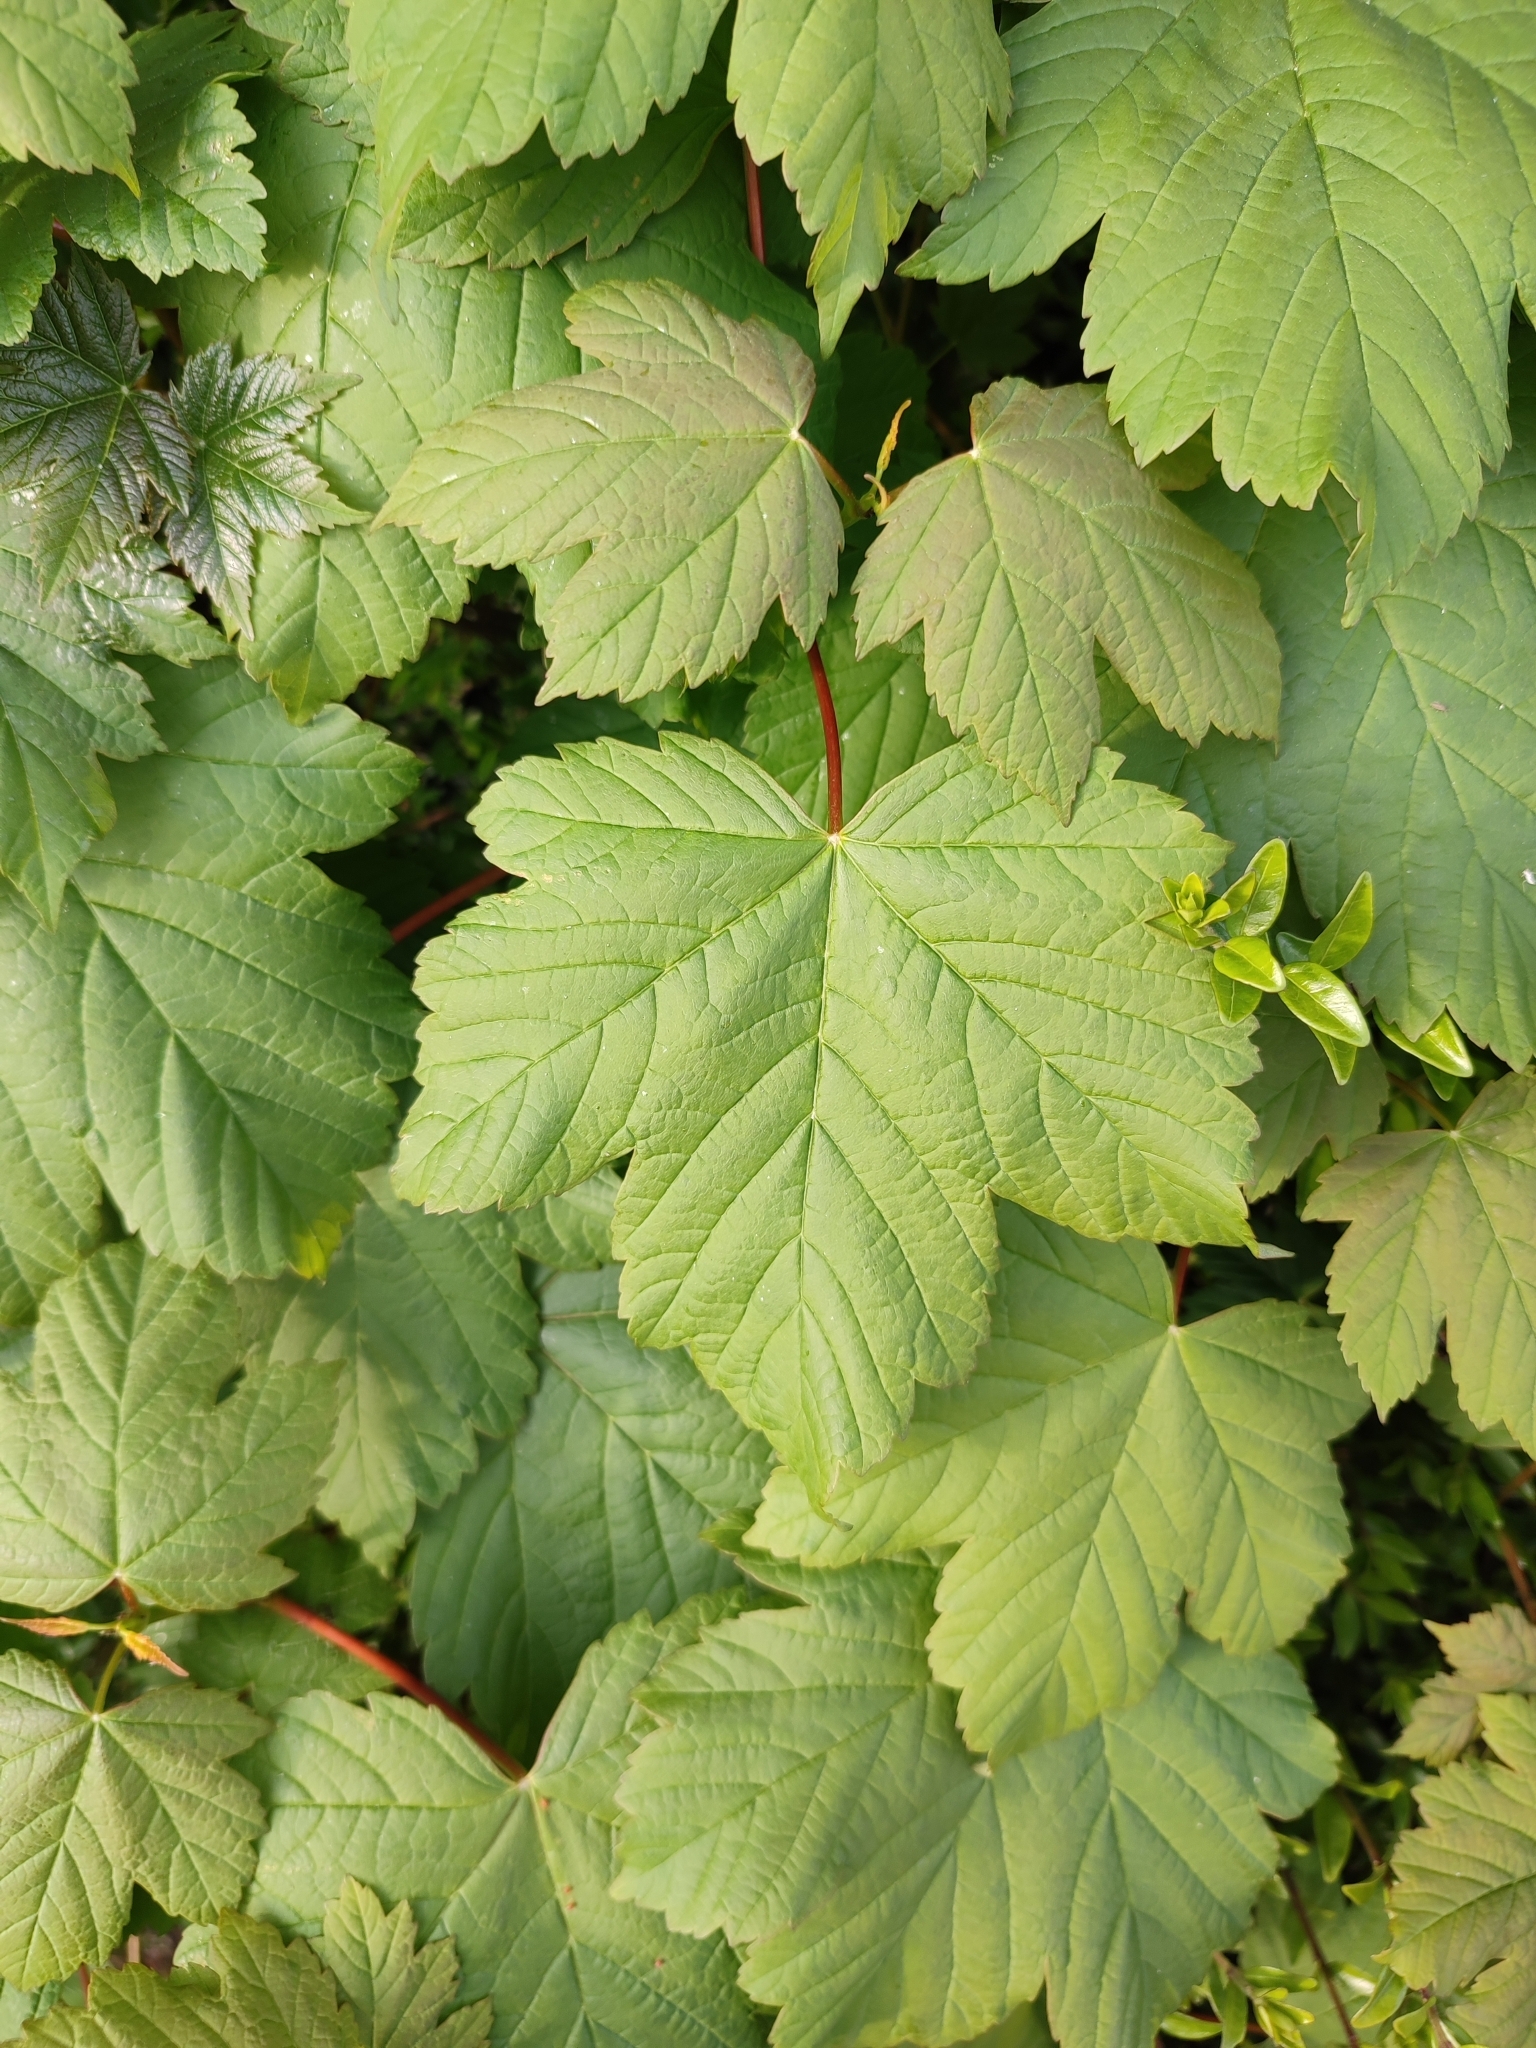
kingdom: Plantae
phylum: Tracheophyta
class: Magnoliopsida
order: Sapindales
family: Sapindaceae
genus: Acer
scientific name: Acer pseudoplatanus
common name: Sycamore
